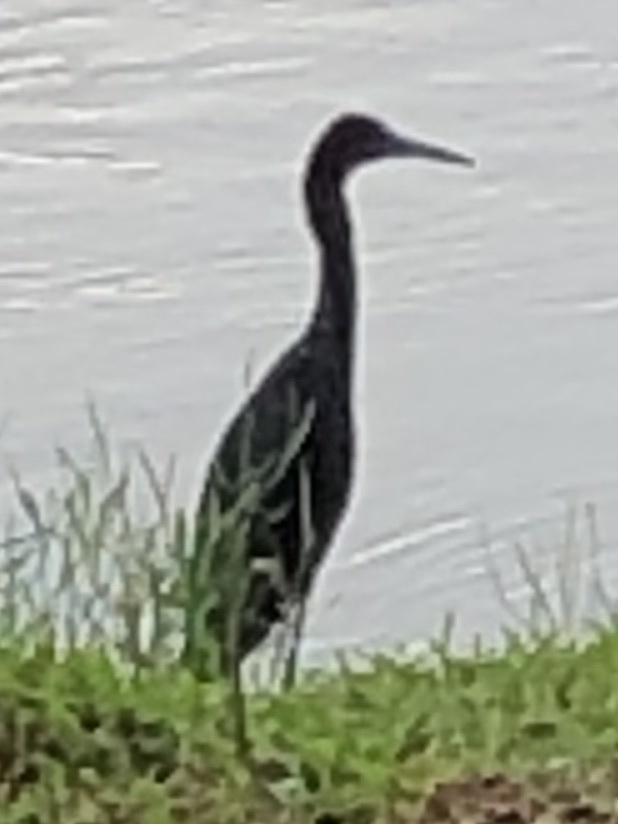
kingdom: Animalia
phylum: Chordata
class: Aves
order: Pelecaniformes
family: Ardeidae
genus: Egretta
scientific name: Egretta caerulea
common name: Little blue heron
